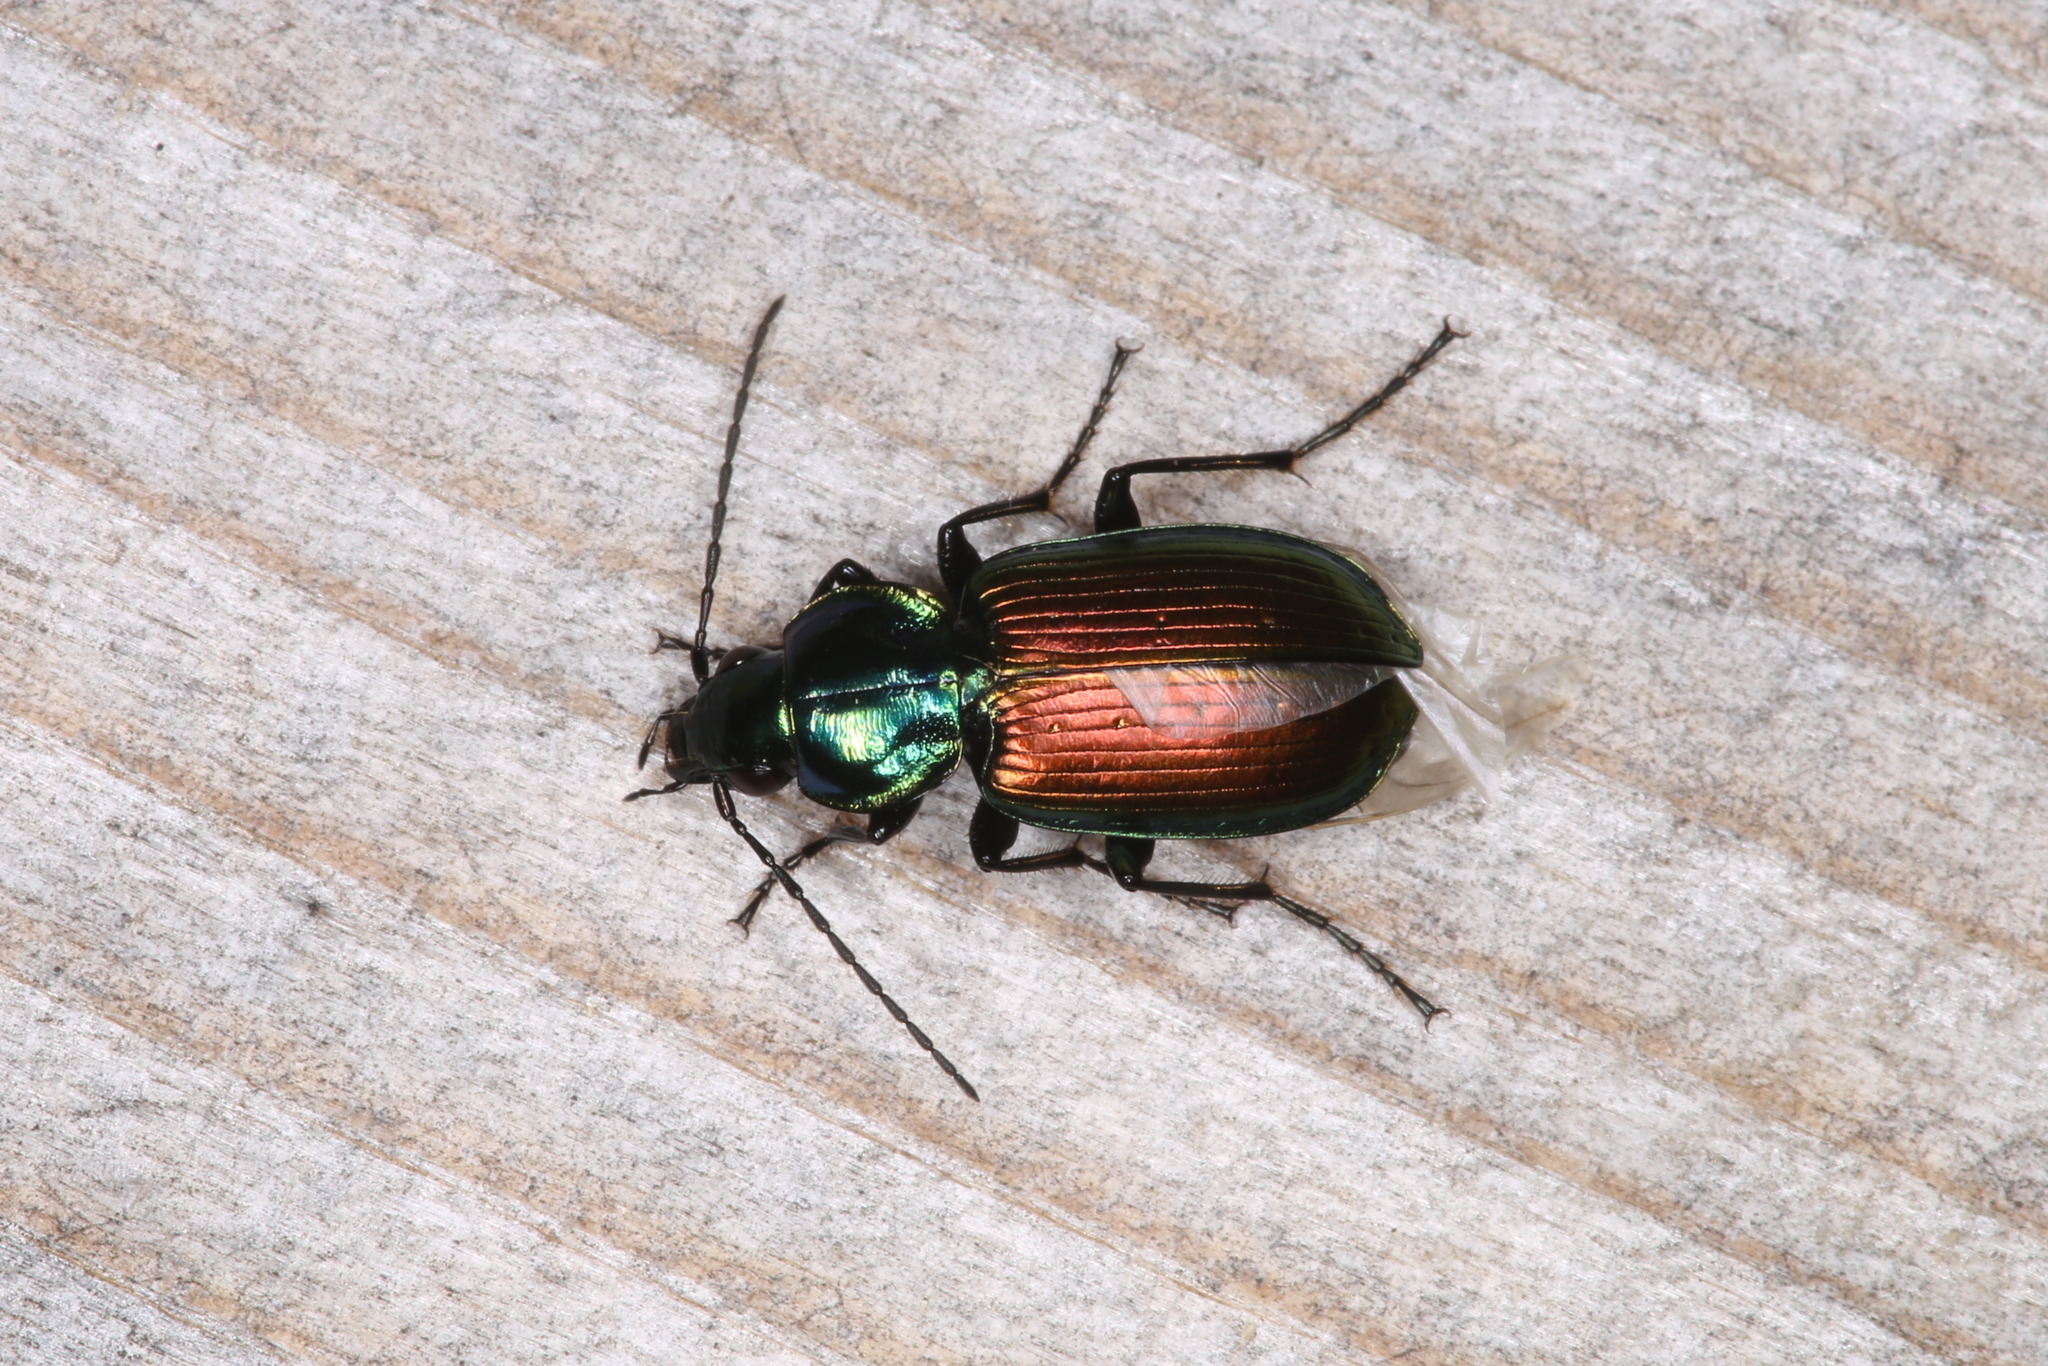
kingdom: Animalia
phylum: Arthropoda
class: Insecta
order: Coleoptera
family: Carabidae
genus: Agonum
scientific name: Agonum sexpunctatum
